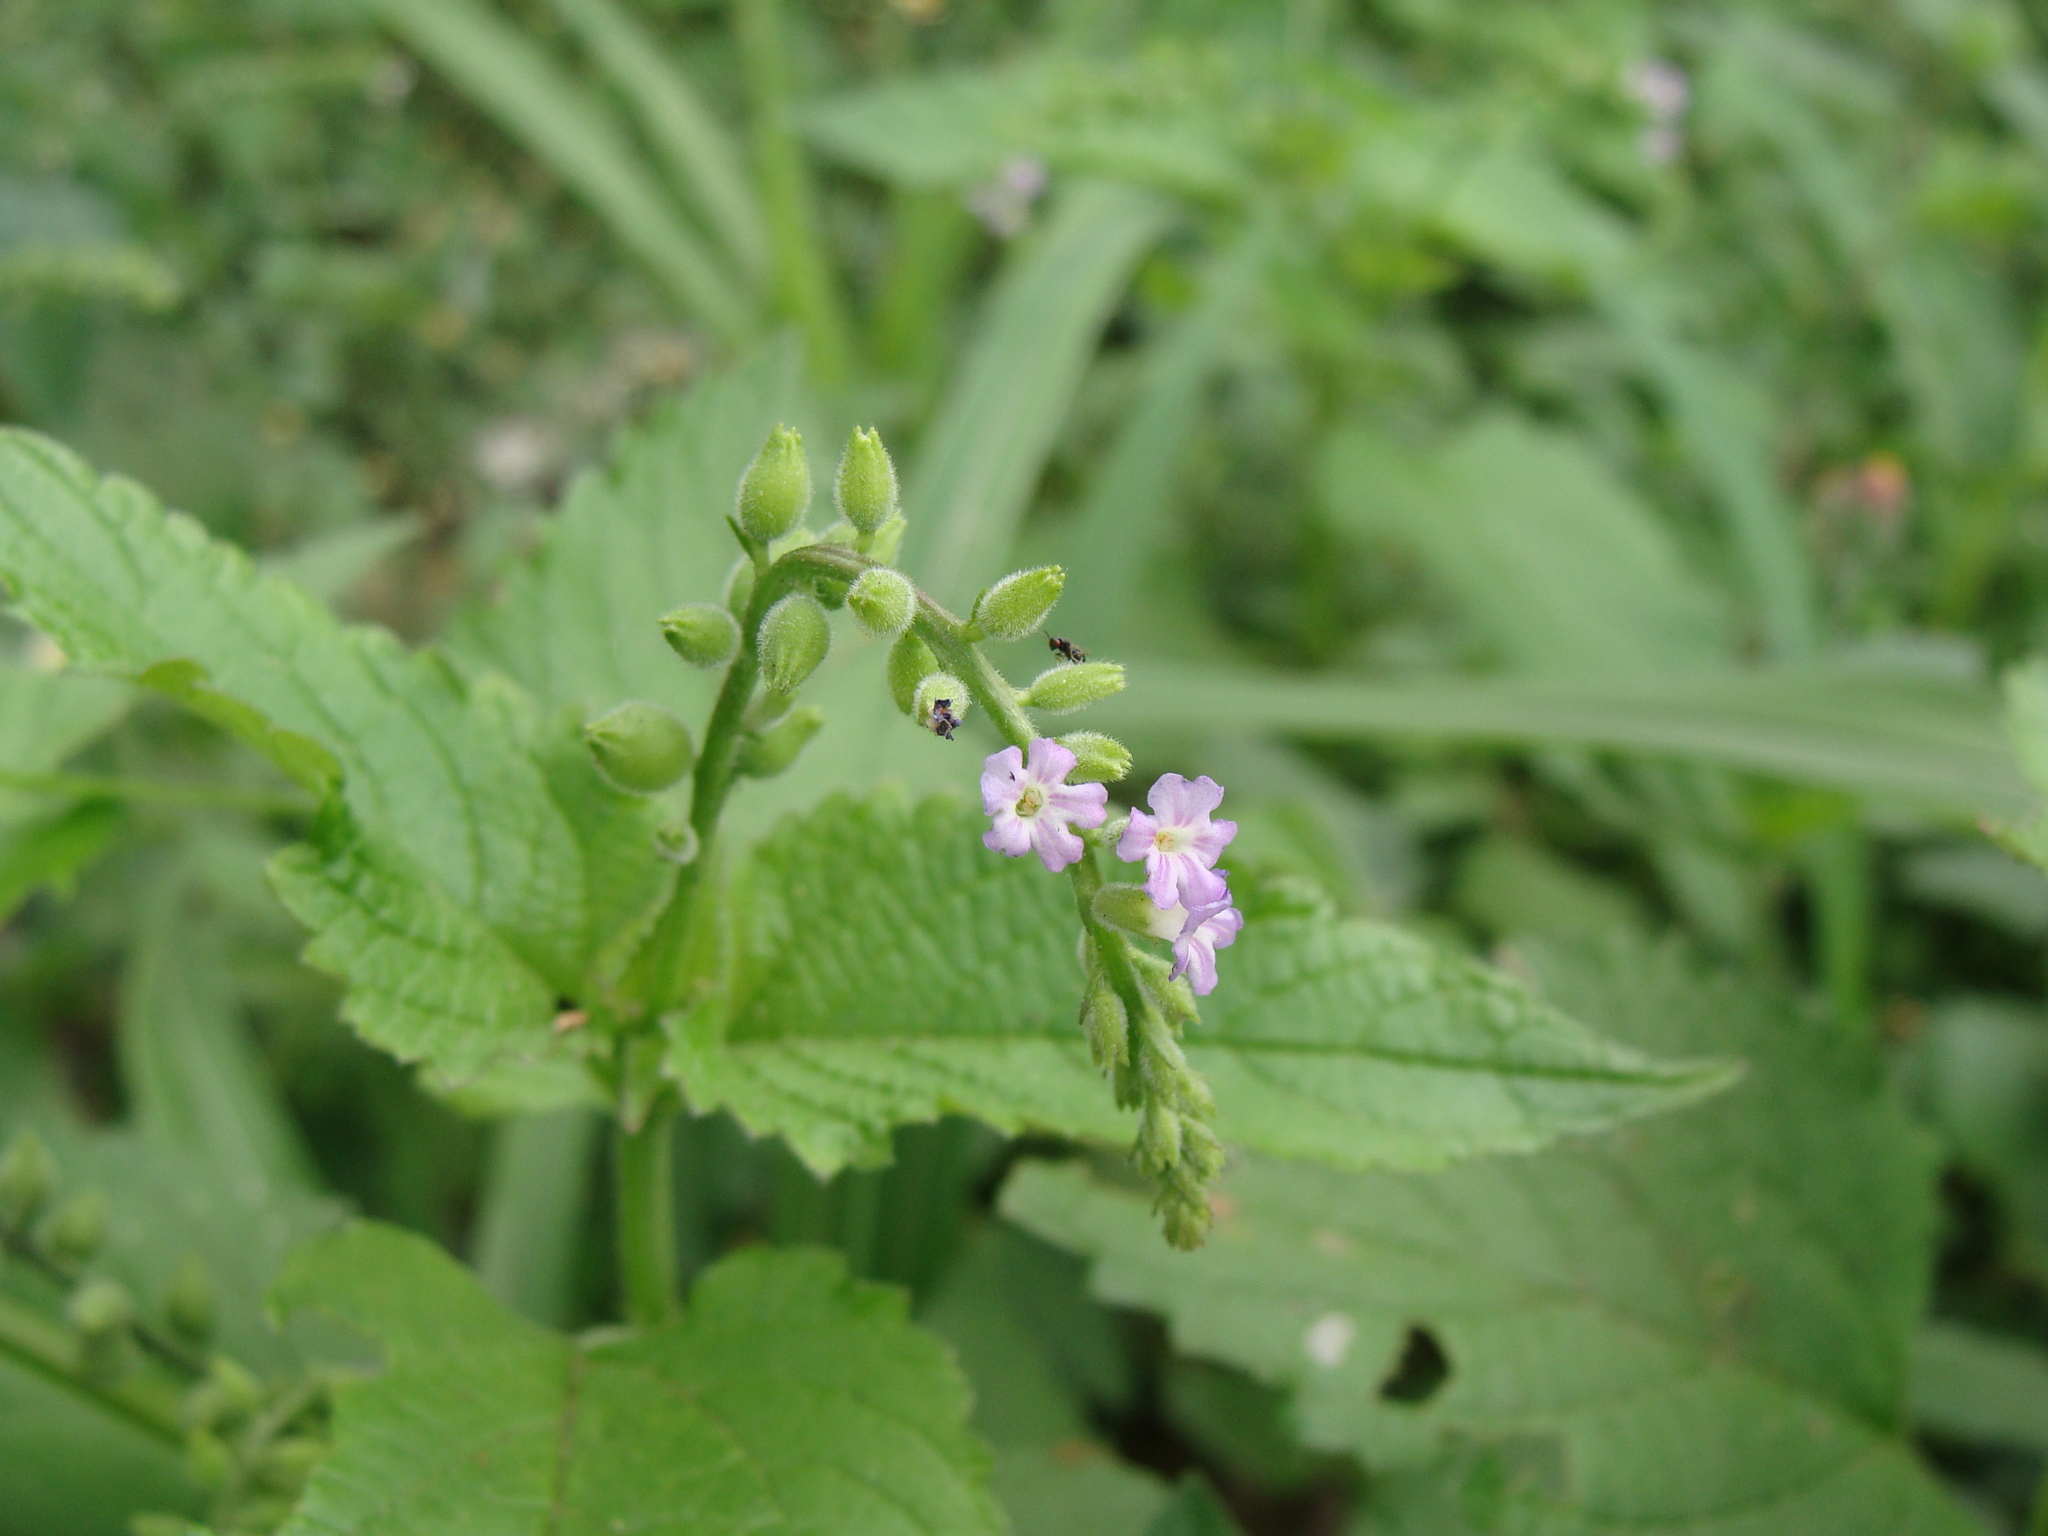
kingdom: Plantae
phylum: Tracheophyta
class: Magnoliopsida
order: Lamiales
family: Verbenaceae
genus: Priva
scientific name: Priva lappulacea
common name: Fasten-'pon-coat
